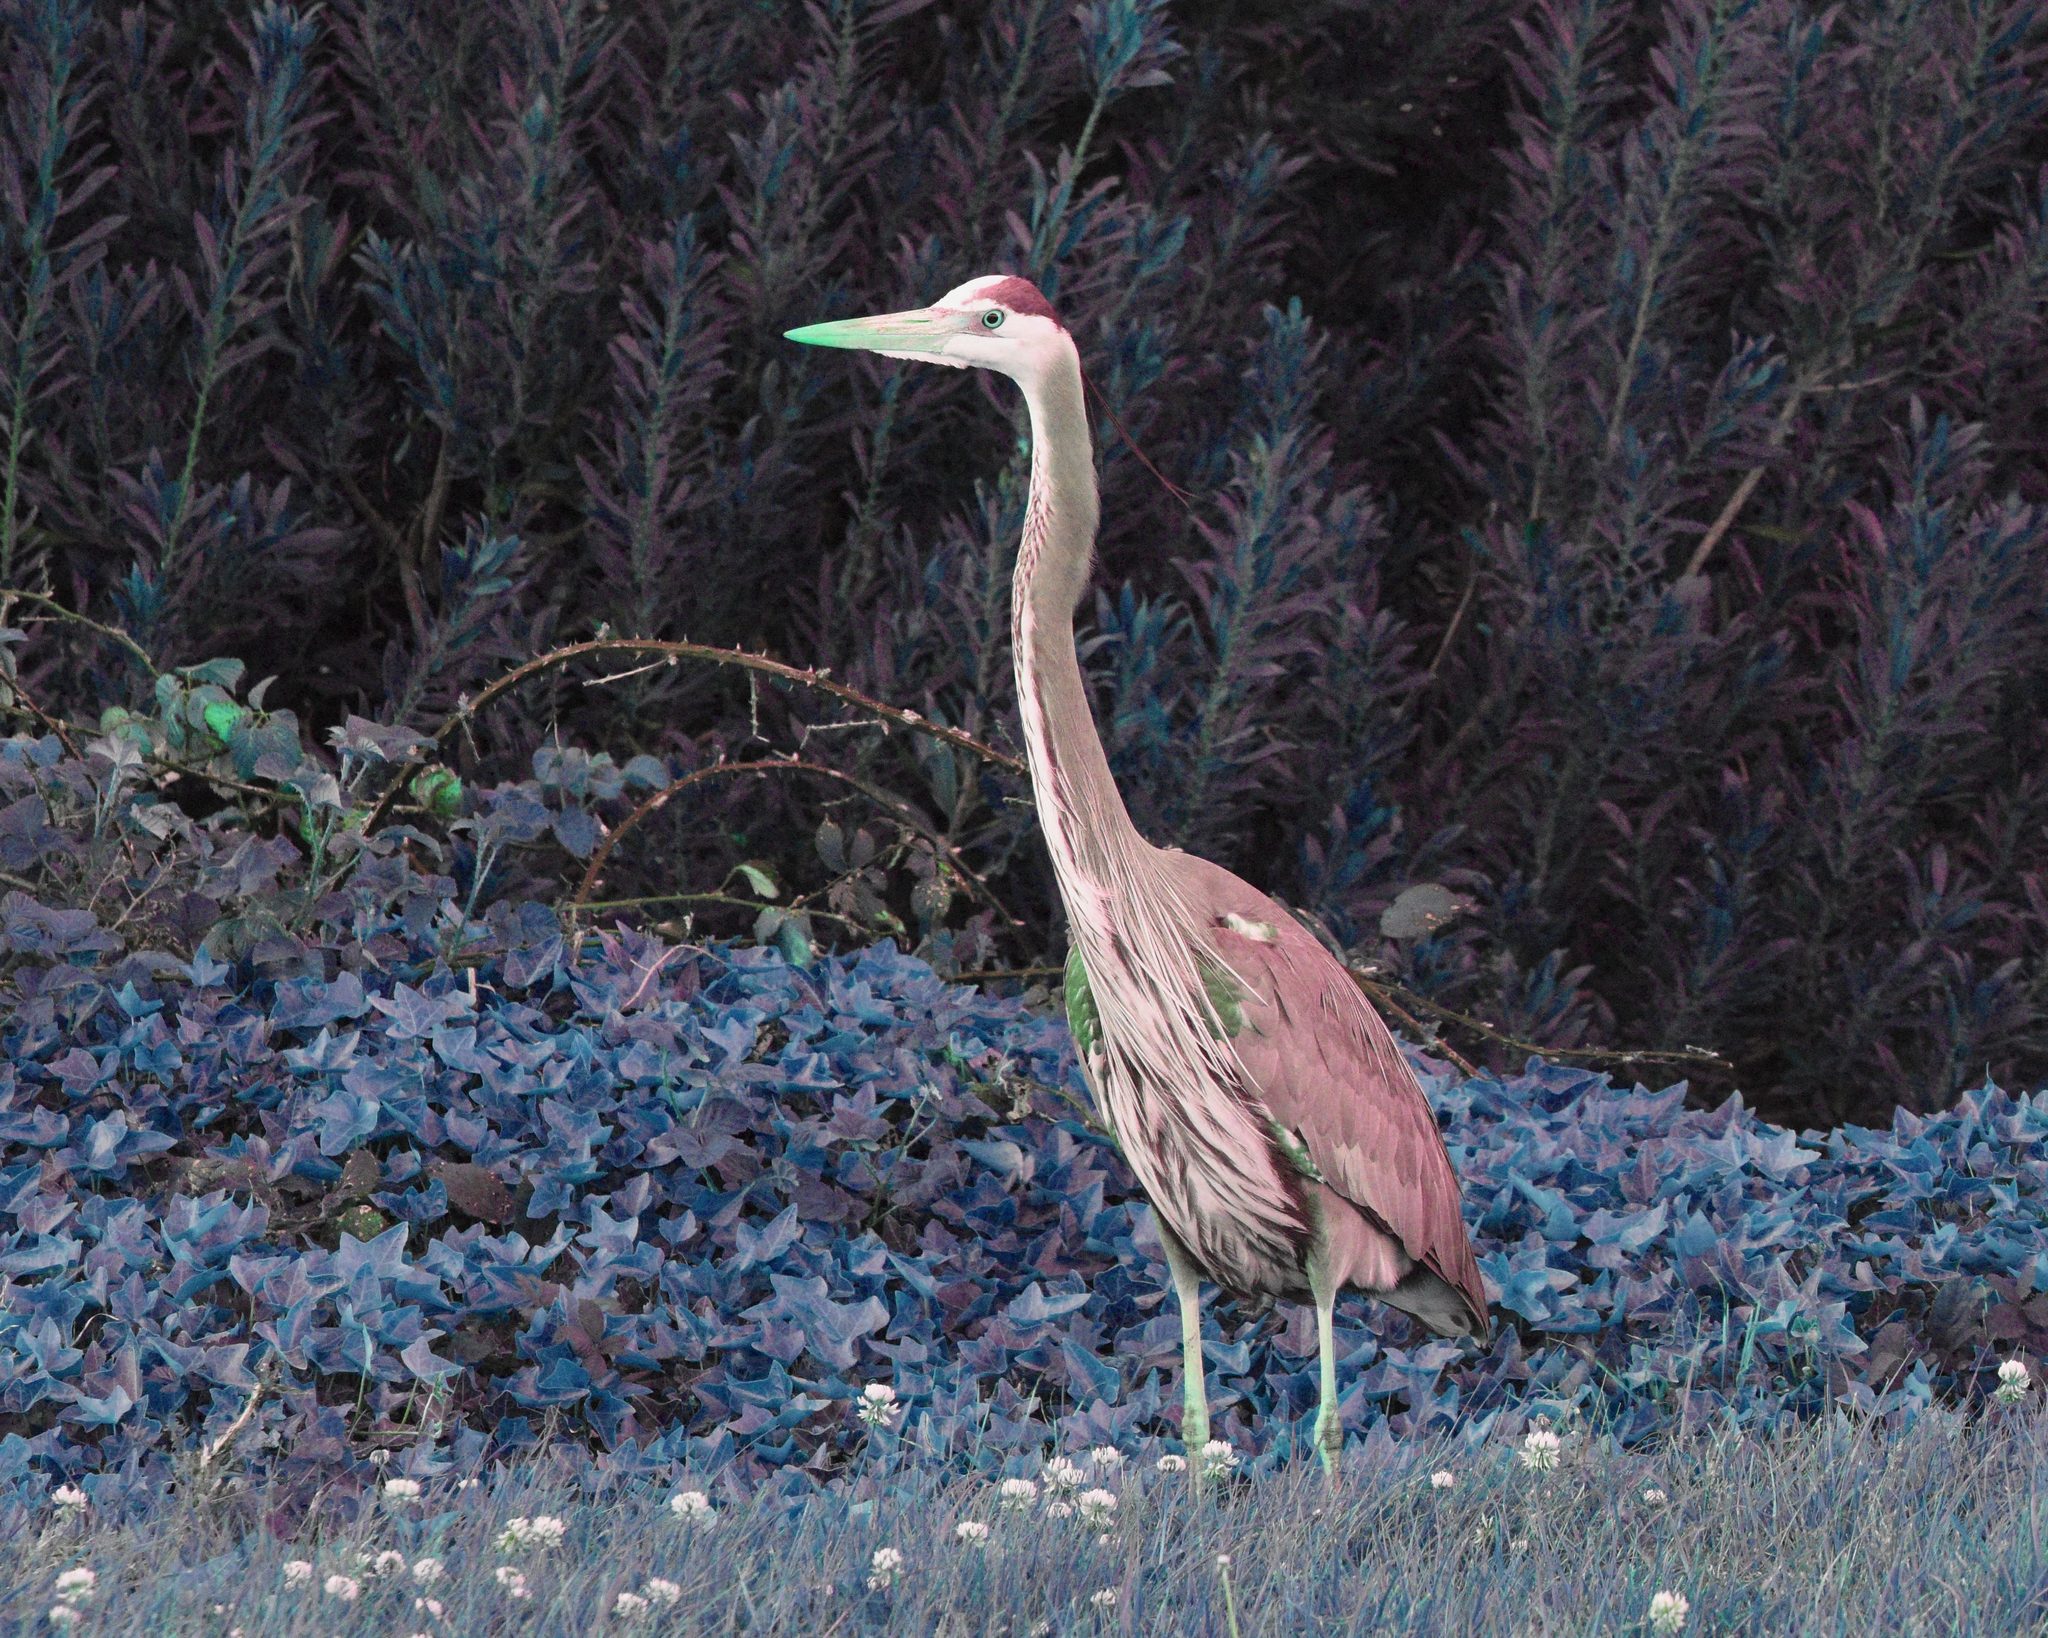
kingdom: Animalia
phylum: Chordata
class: Aves
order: Pelecaniformes
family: Ardeidae
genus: Ardea
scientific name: Ardea herodias
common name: Great blue heron
